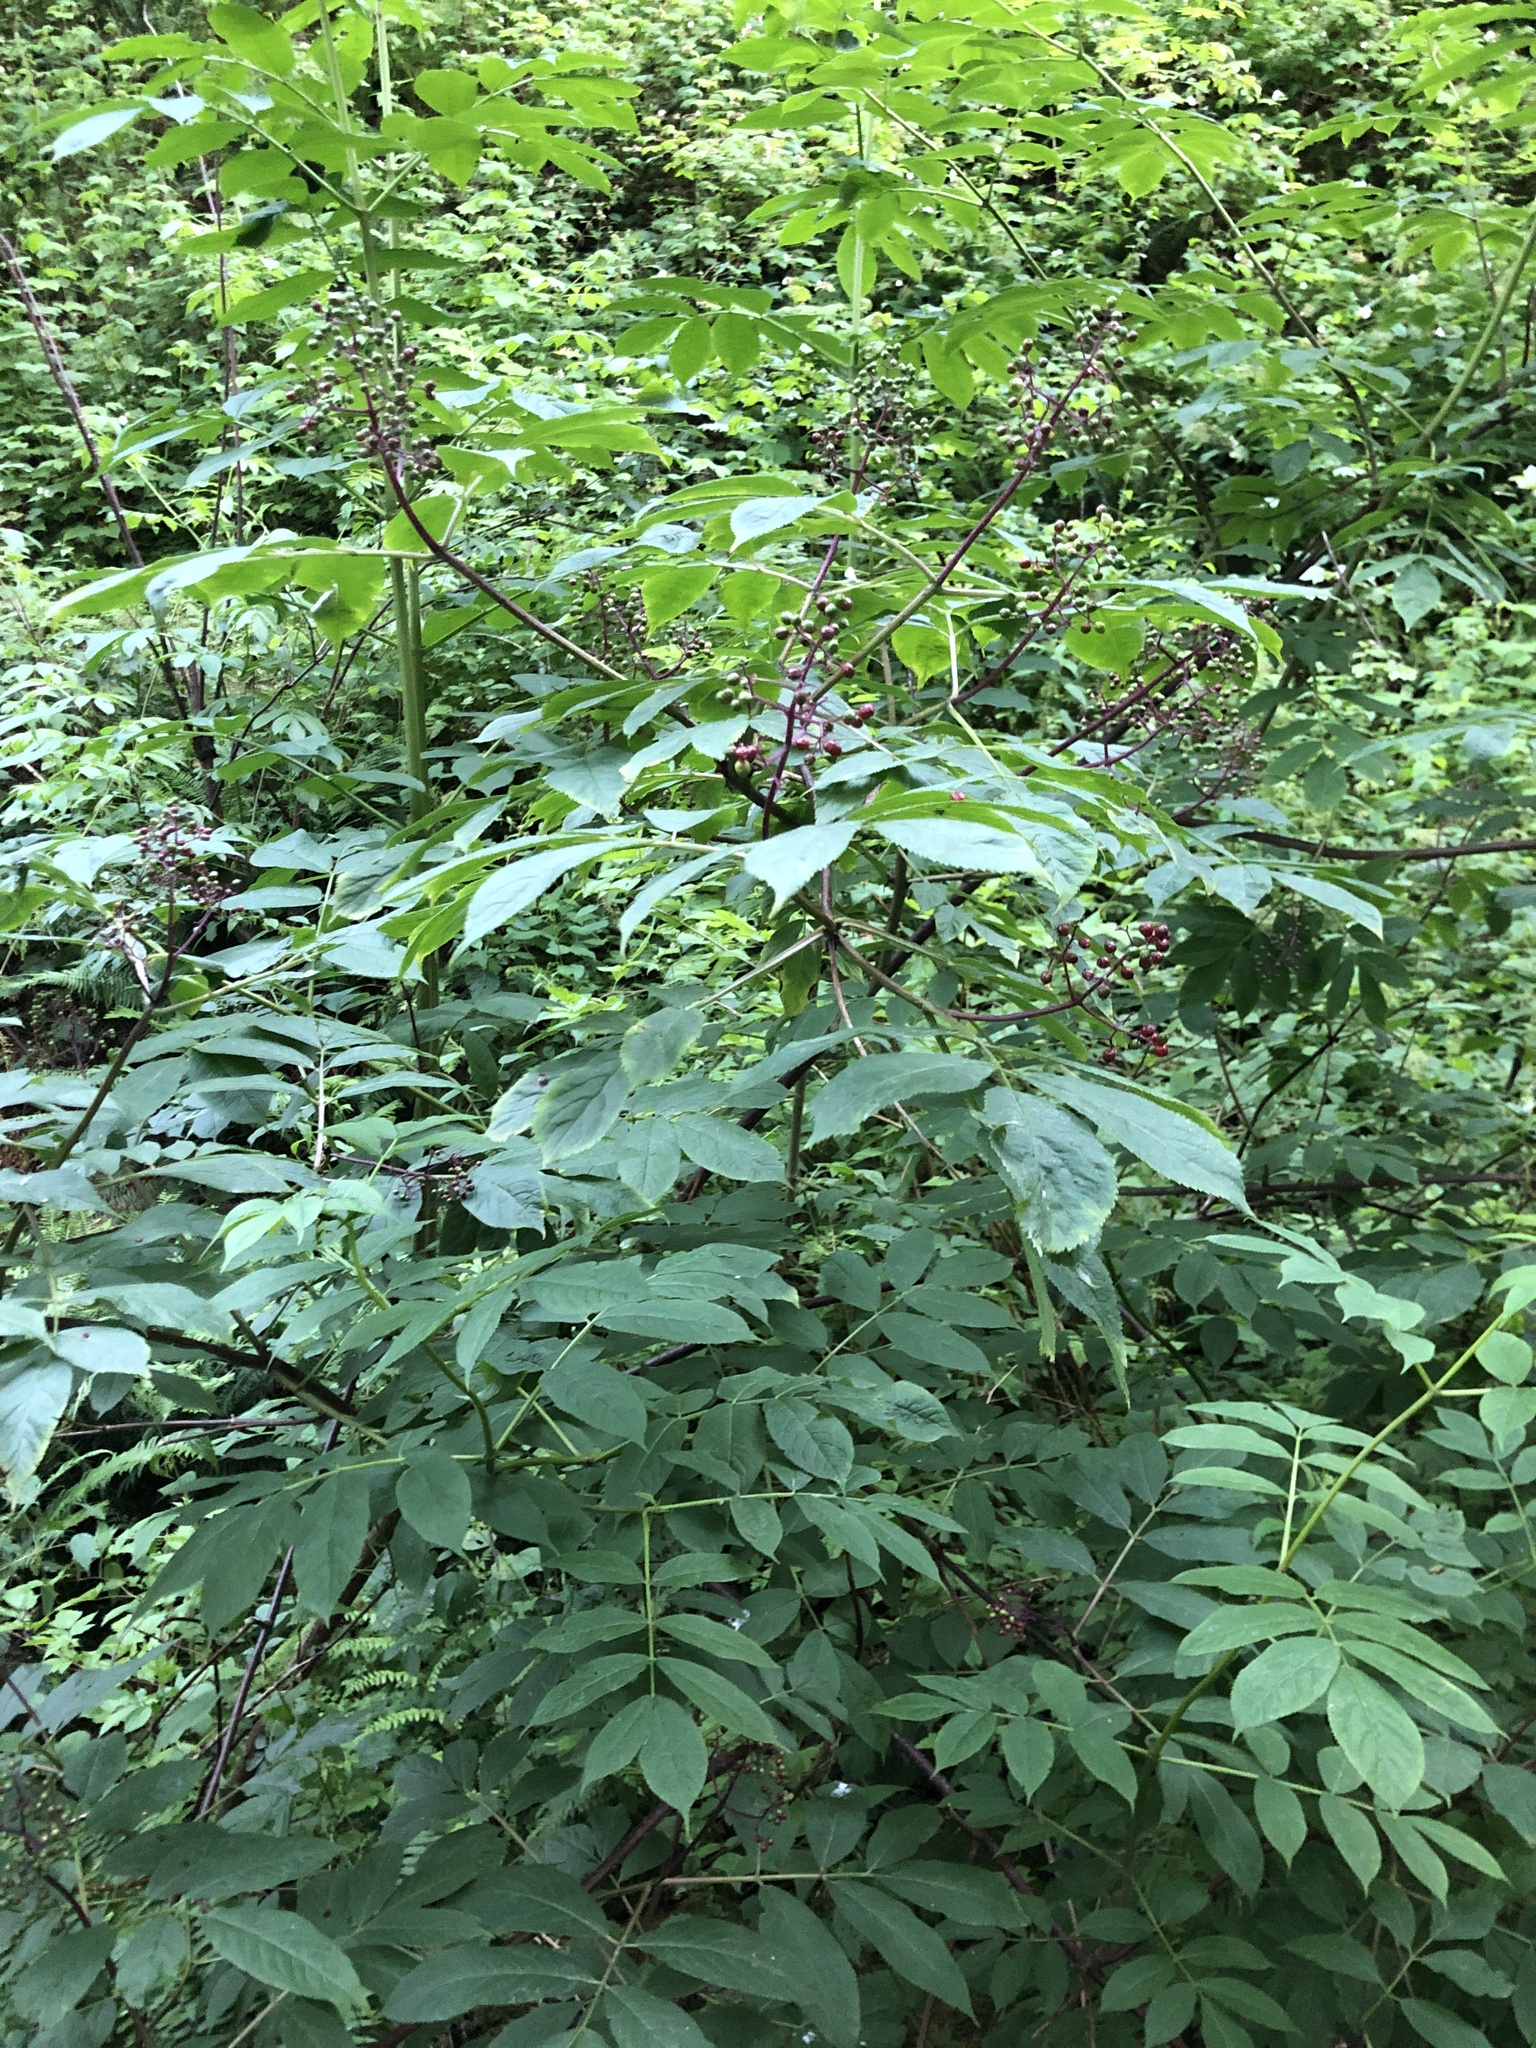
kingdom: Plantae
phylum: Tracheophyta
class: Magnoliopsida
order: Dipsacales
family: Viburnaceae
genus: Sambucus
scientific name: Sambucus racemosa
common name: Red-berried elder
